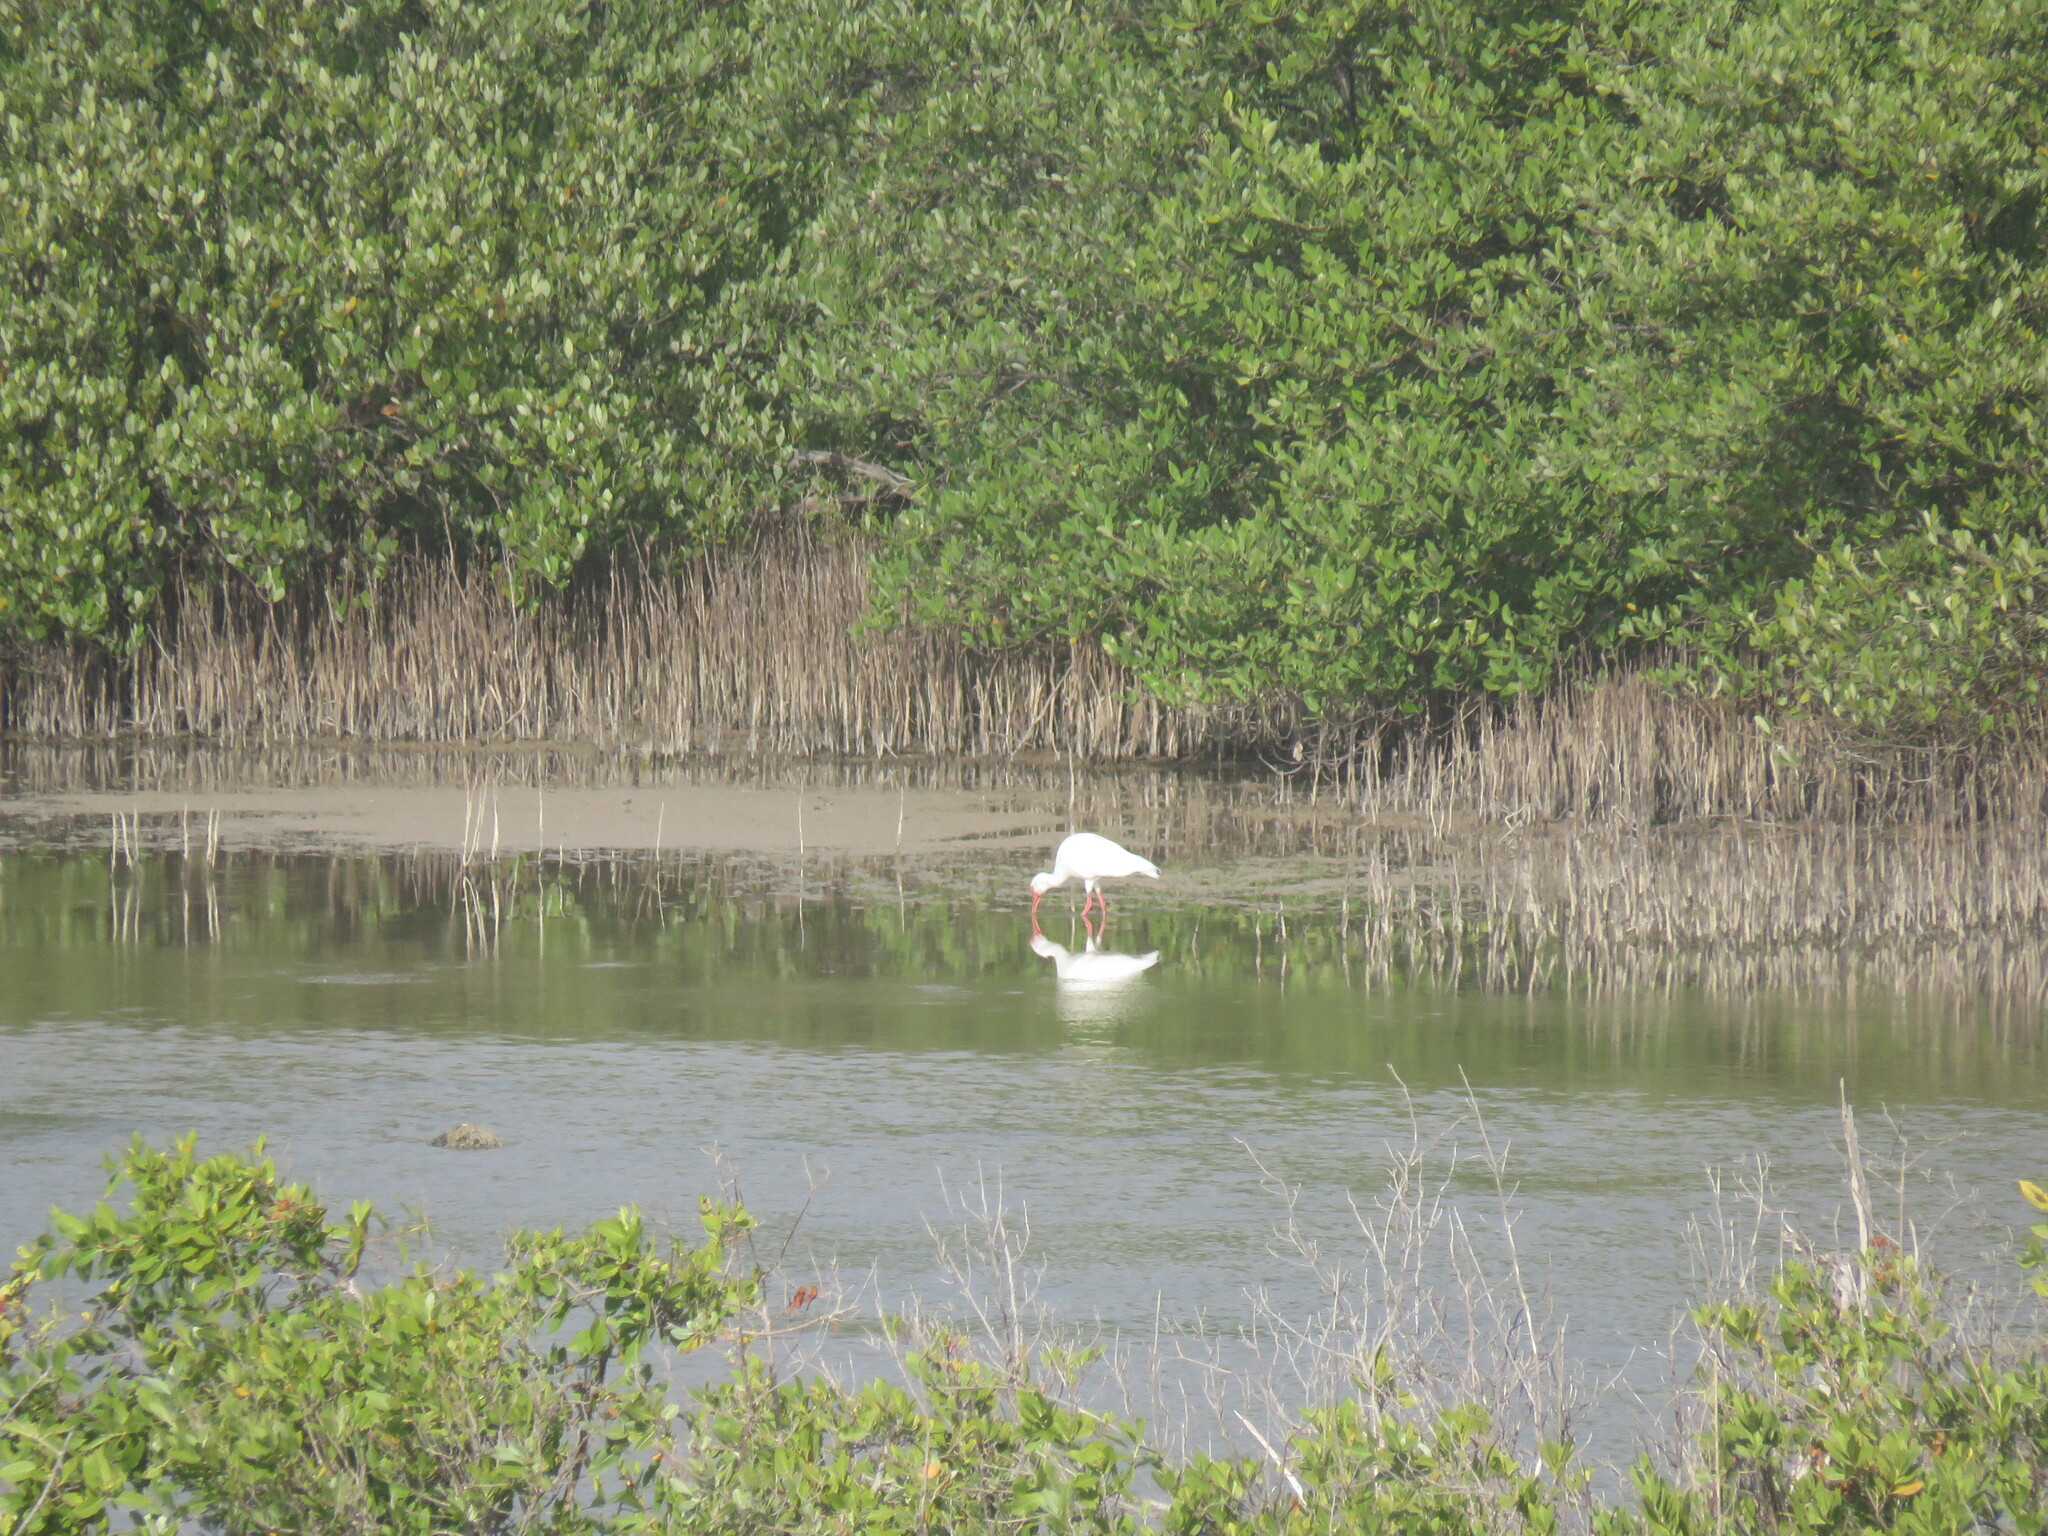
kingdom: Animalia
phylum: Chordata
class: Aves
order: Pelecaniformes
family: Threskiornithidae
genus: Eudocimus
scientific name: Eudocimus albus
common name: White ibis
